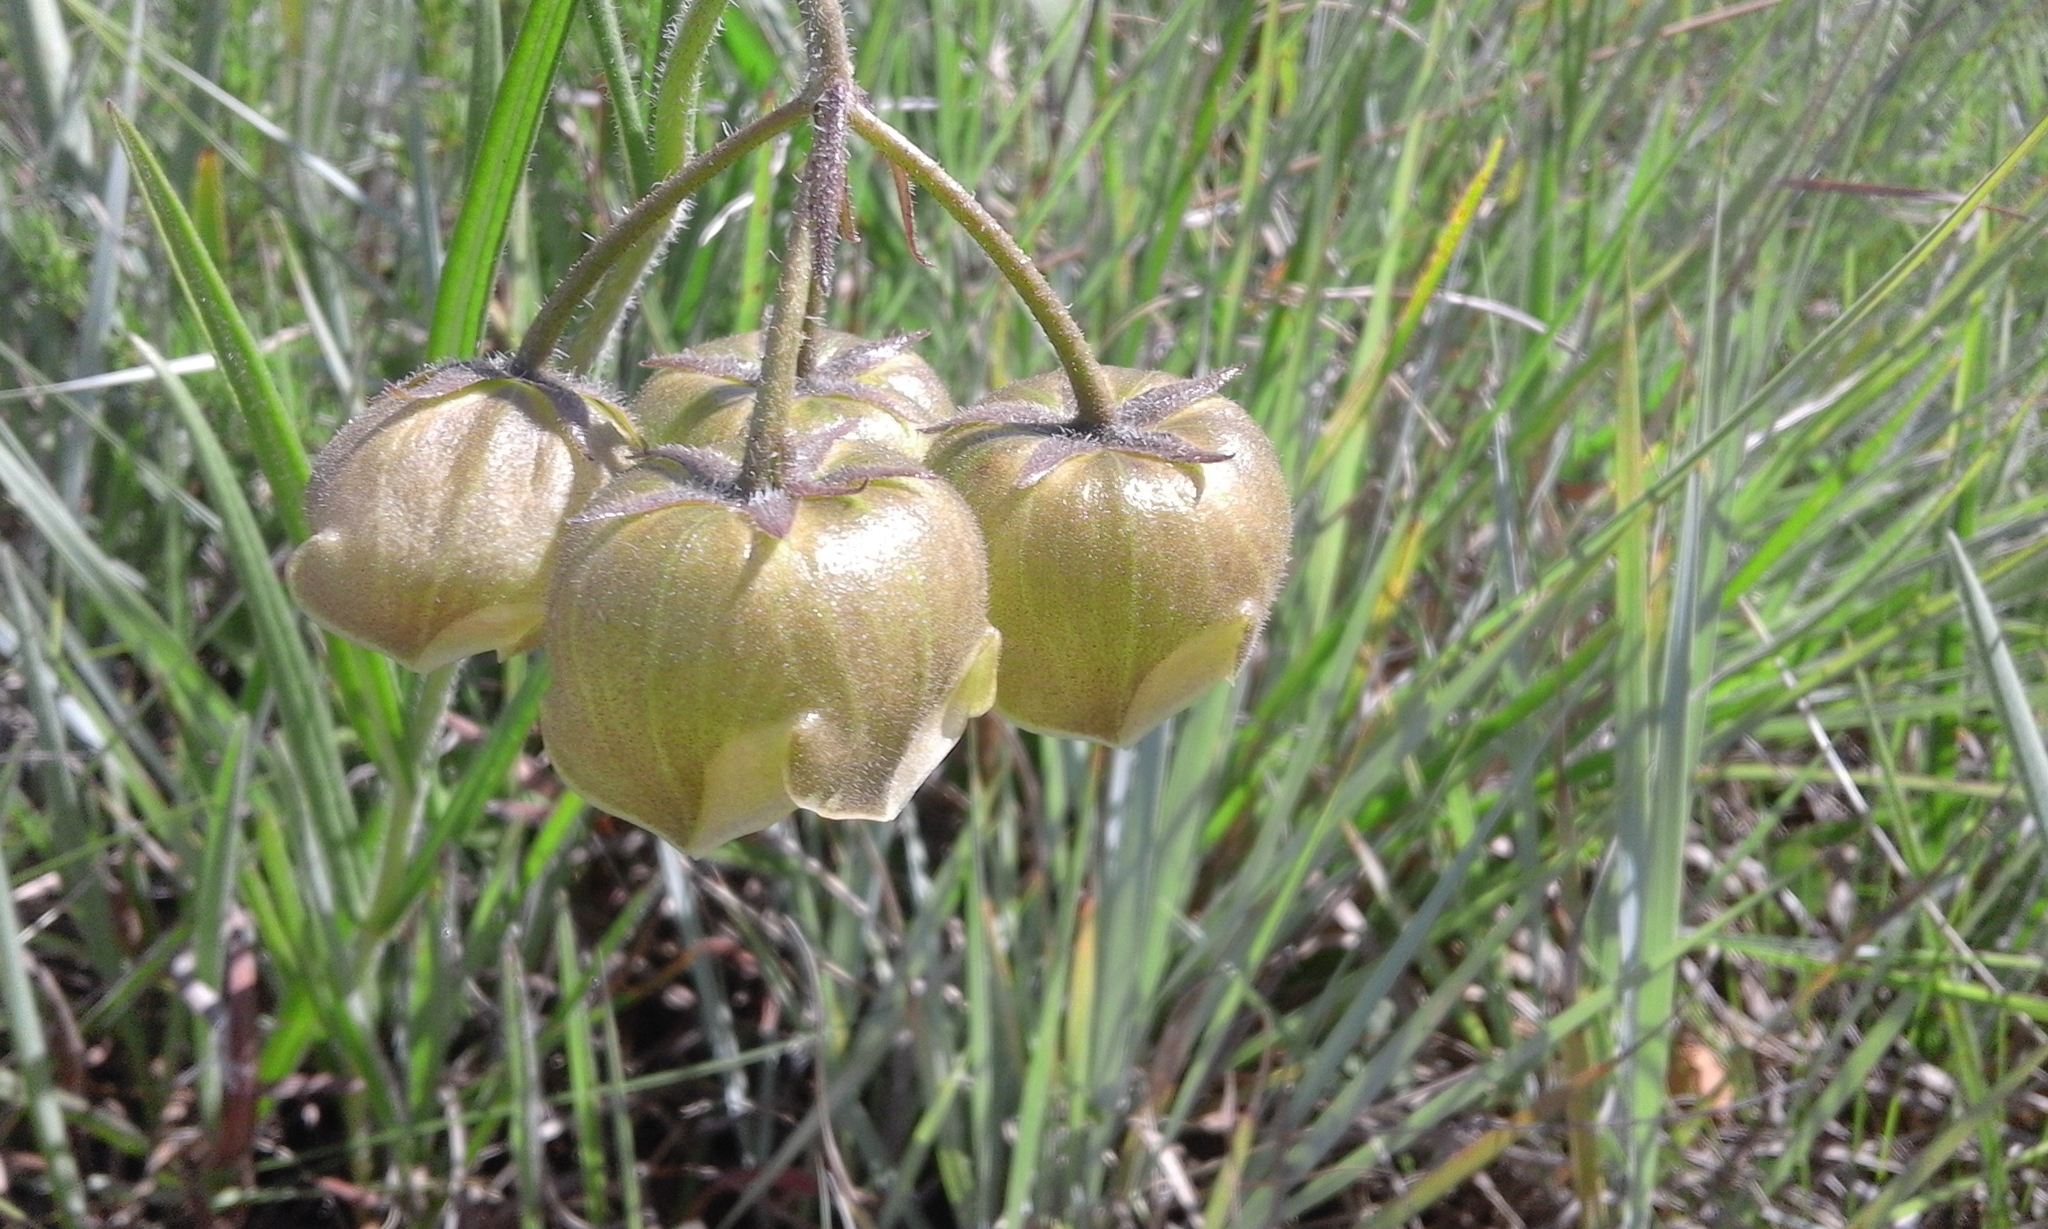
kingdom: Plantae
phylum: Tracheophyta
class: Magnoliopsida
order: Gentianales
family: Apocynaceae
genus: Pachycarpus
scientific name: Pachycarpus campanulatus
